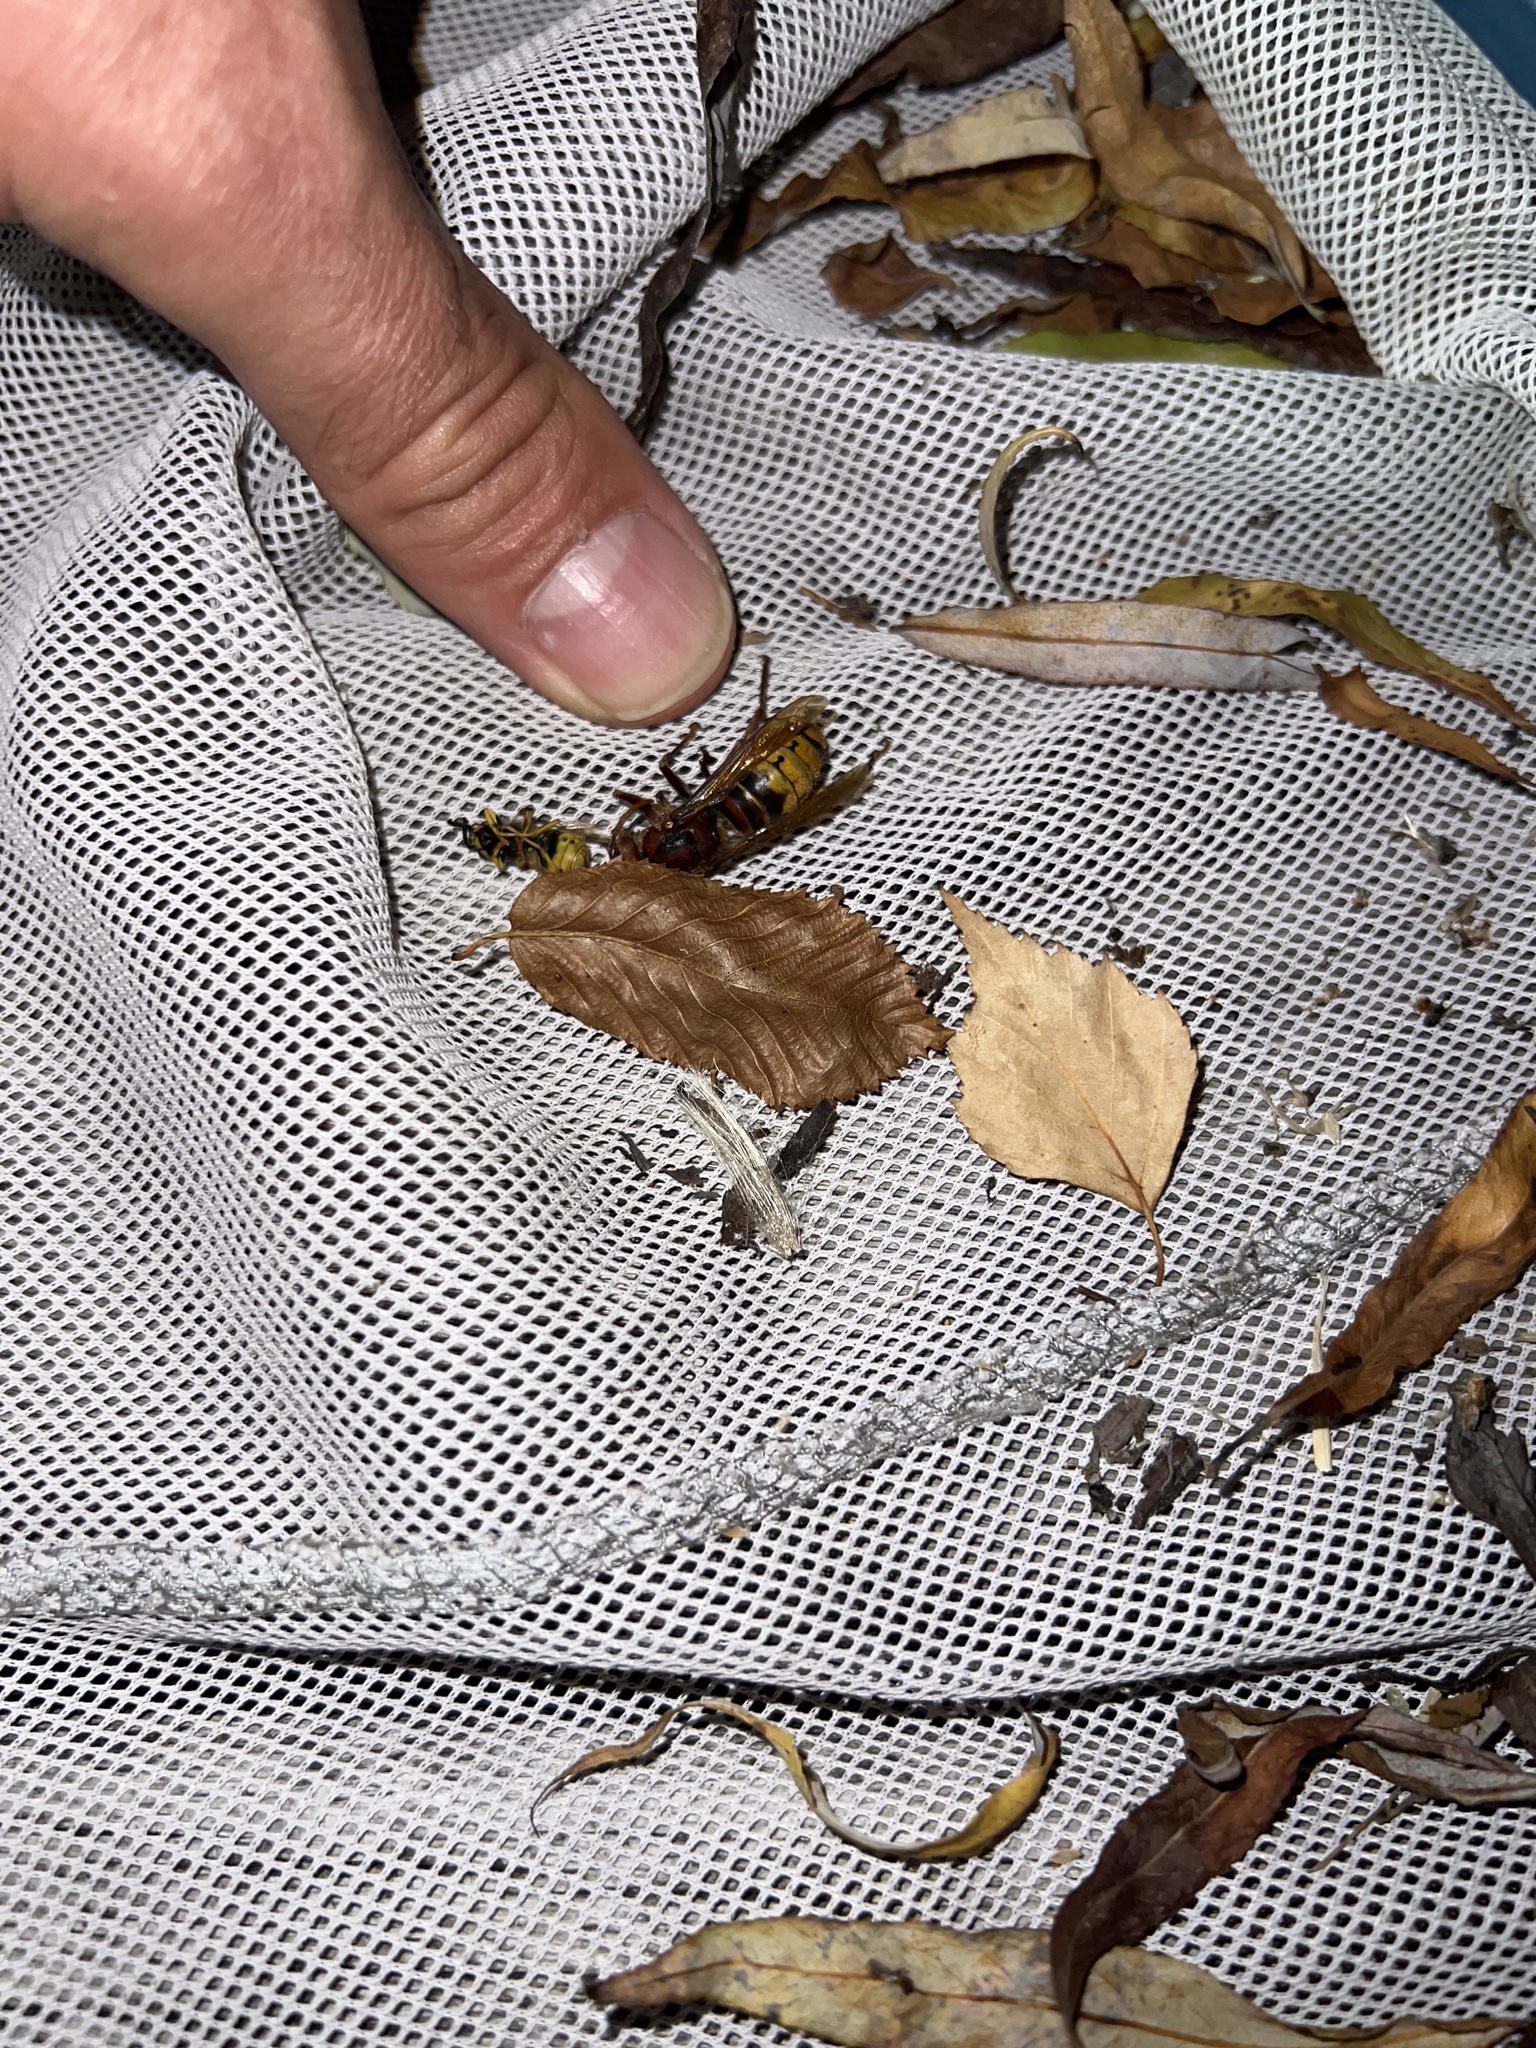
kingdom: Animalia
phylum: Arthropoda
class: Insecta
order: Hymenoptera
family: Vespidae
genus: Vespa
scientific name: Vespa crabro
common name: Hornet
